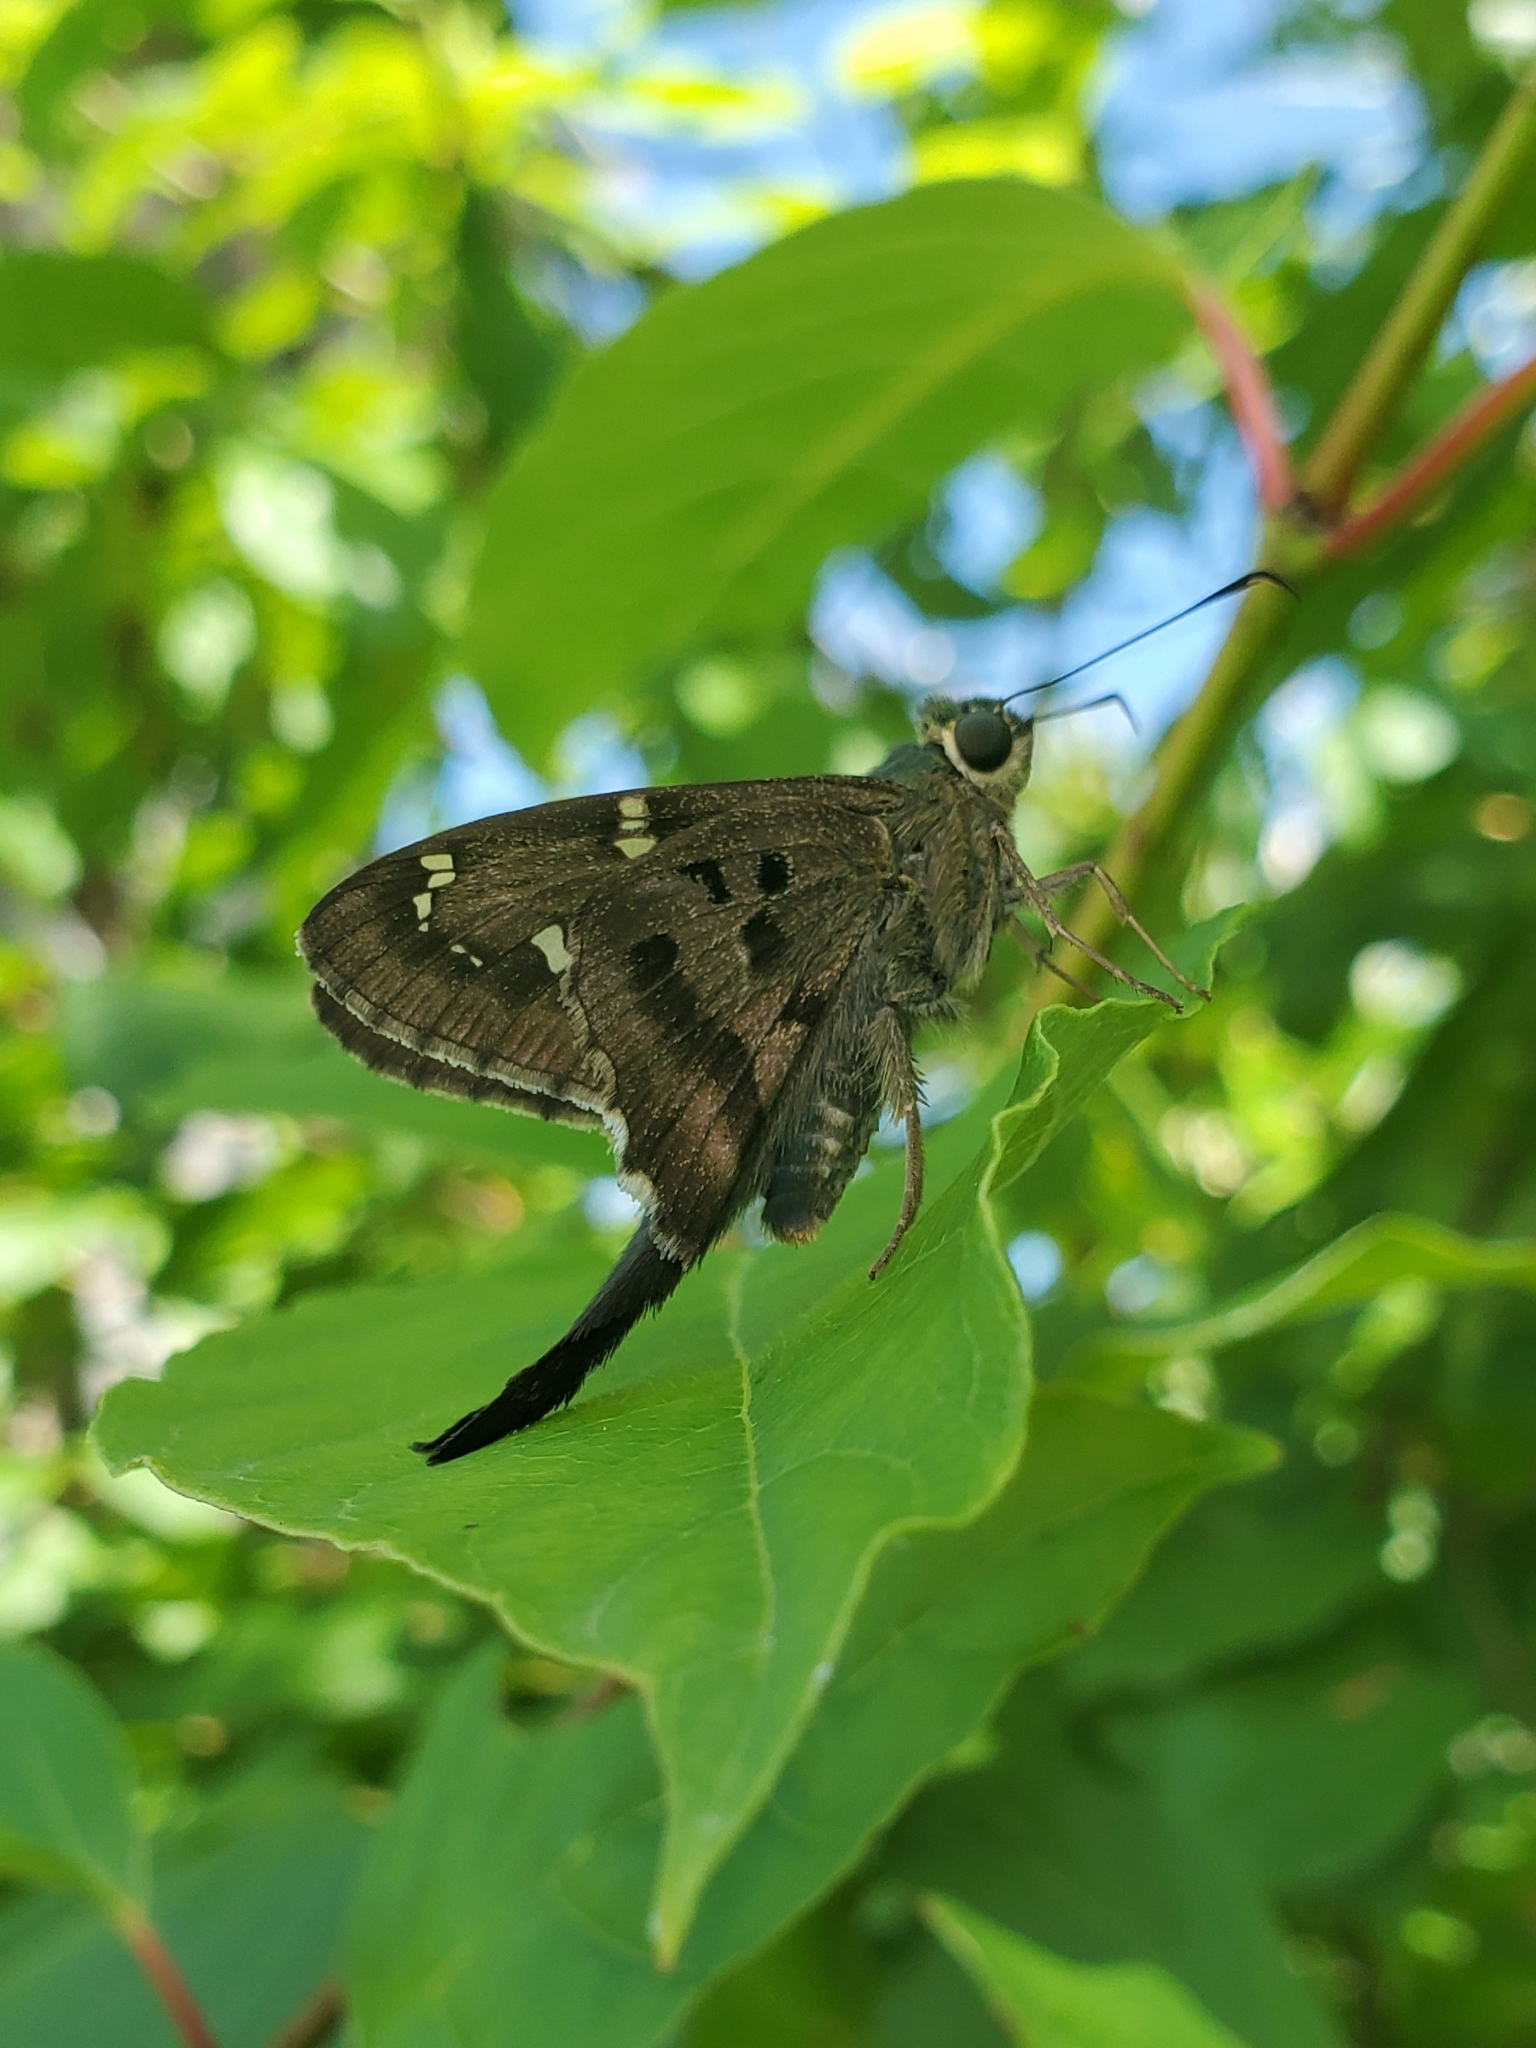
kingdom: Animalia
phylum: Arthropoda
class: Insecta
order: Lepidoptera
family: Hesperiidae
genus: Urbanus
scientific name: Urbanus proteus
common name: Long-tailed skipper
